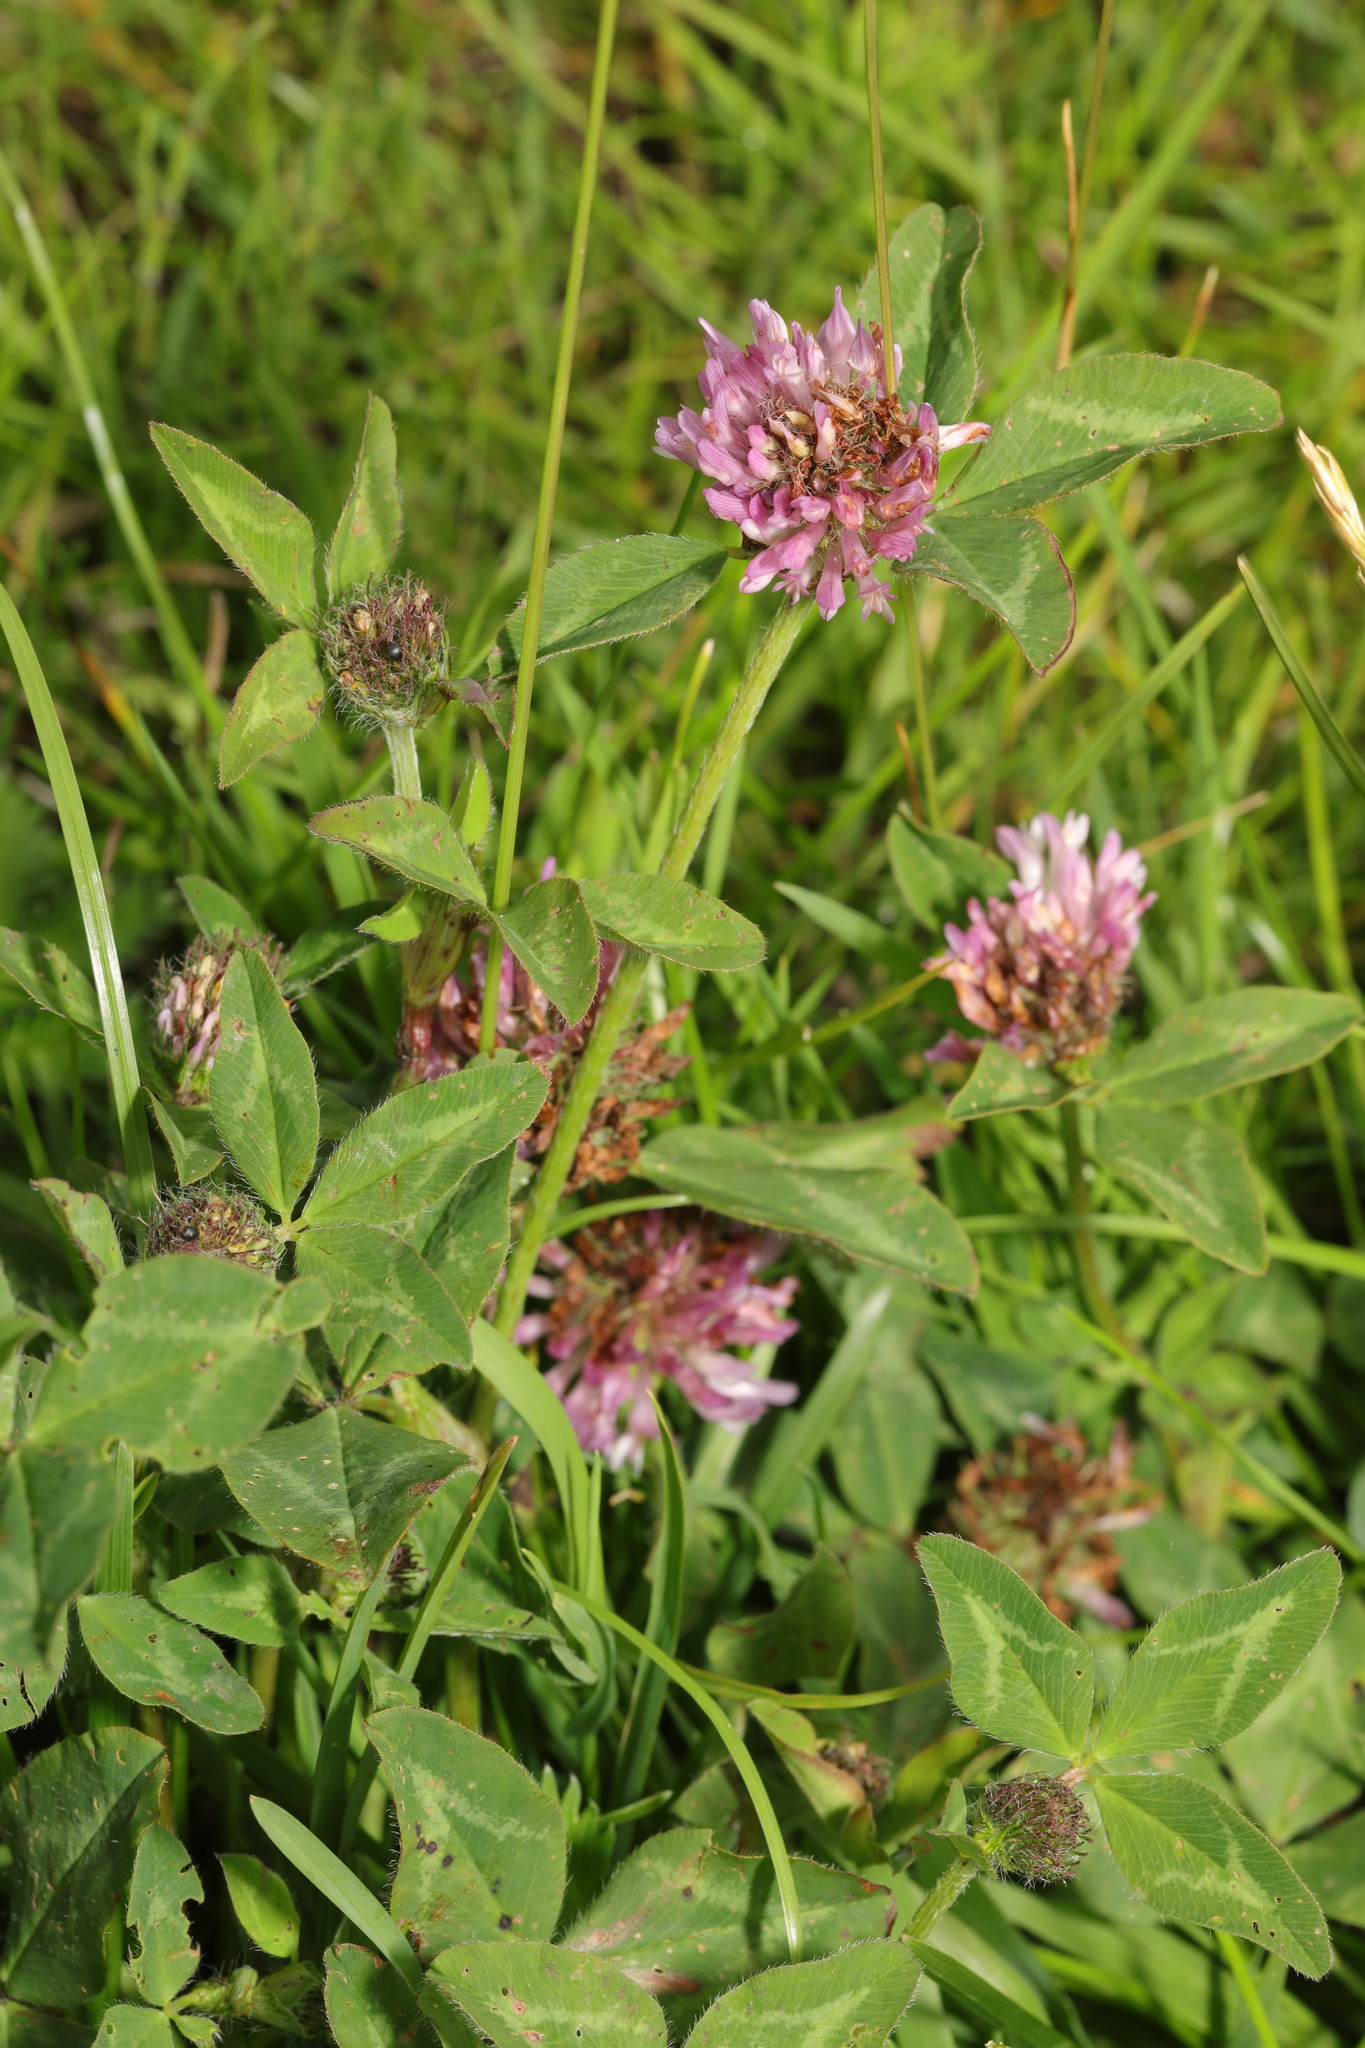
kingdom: Plantae
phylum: Tracheophyta
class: Magnoliopsida
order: Fabales
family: Fabaceae
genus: Trifolium
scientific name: Trifolium pratense
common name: Red clover
